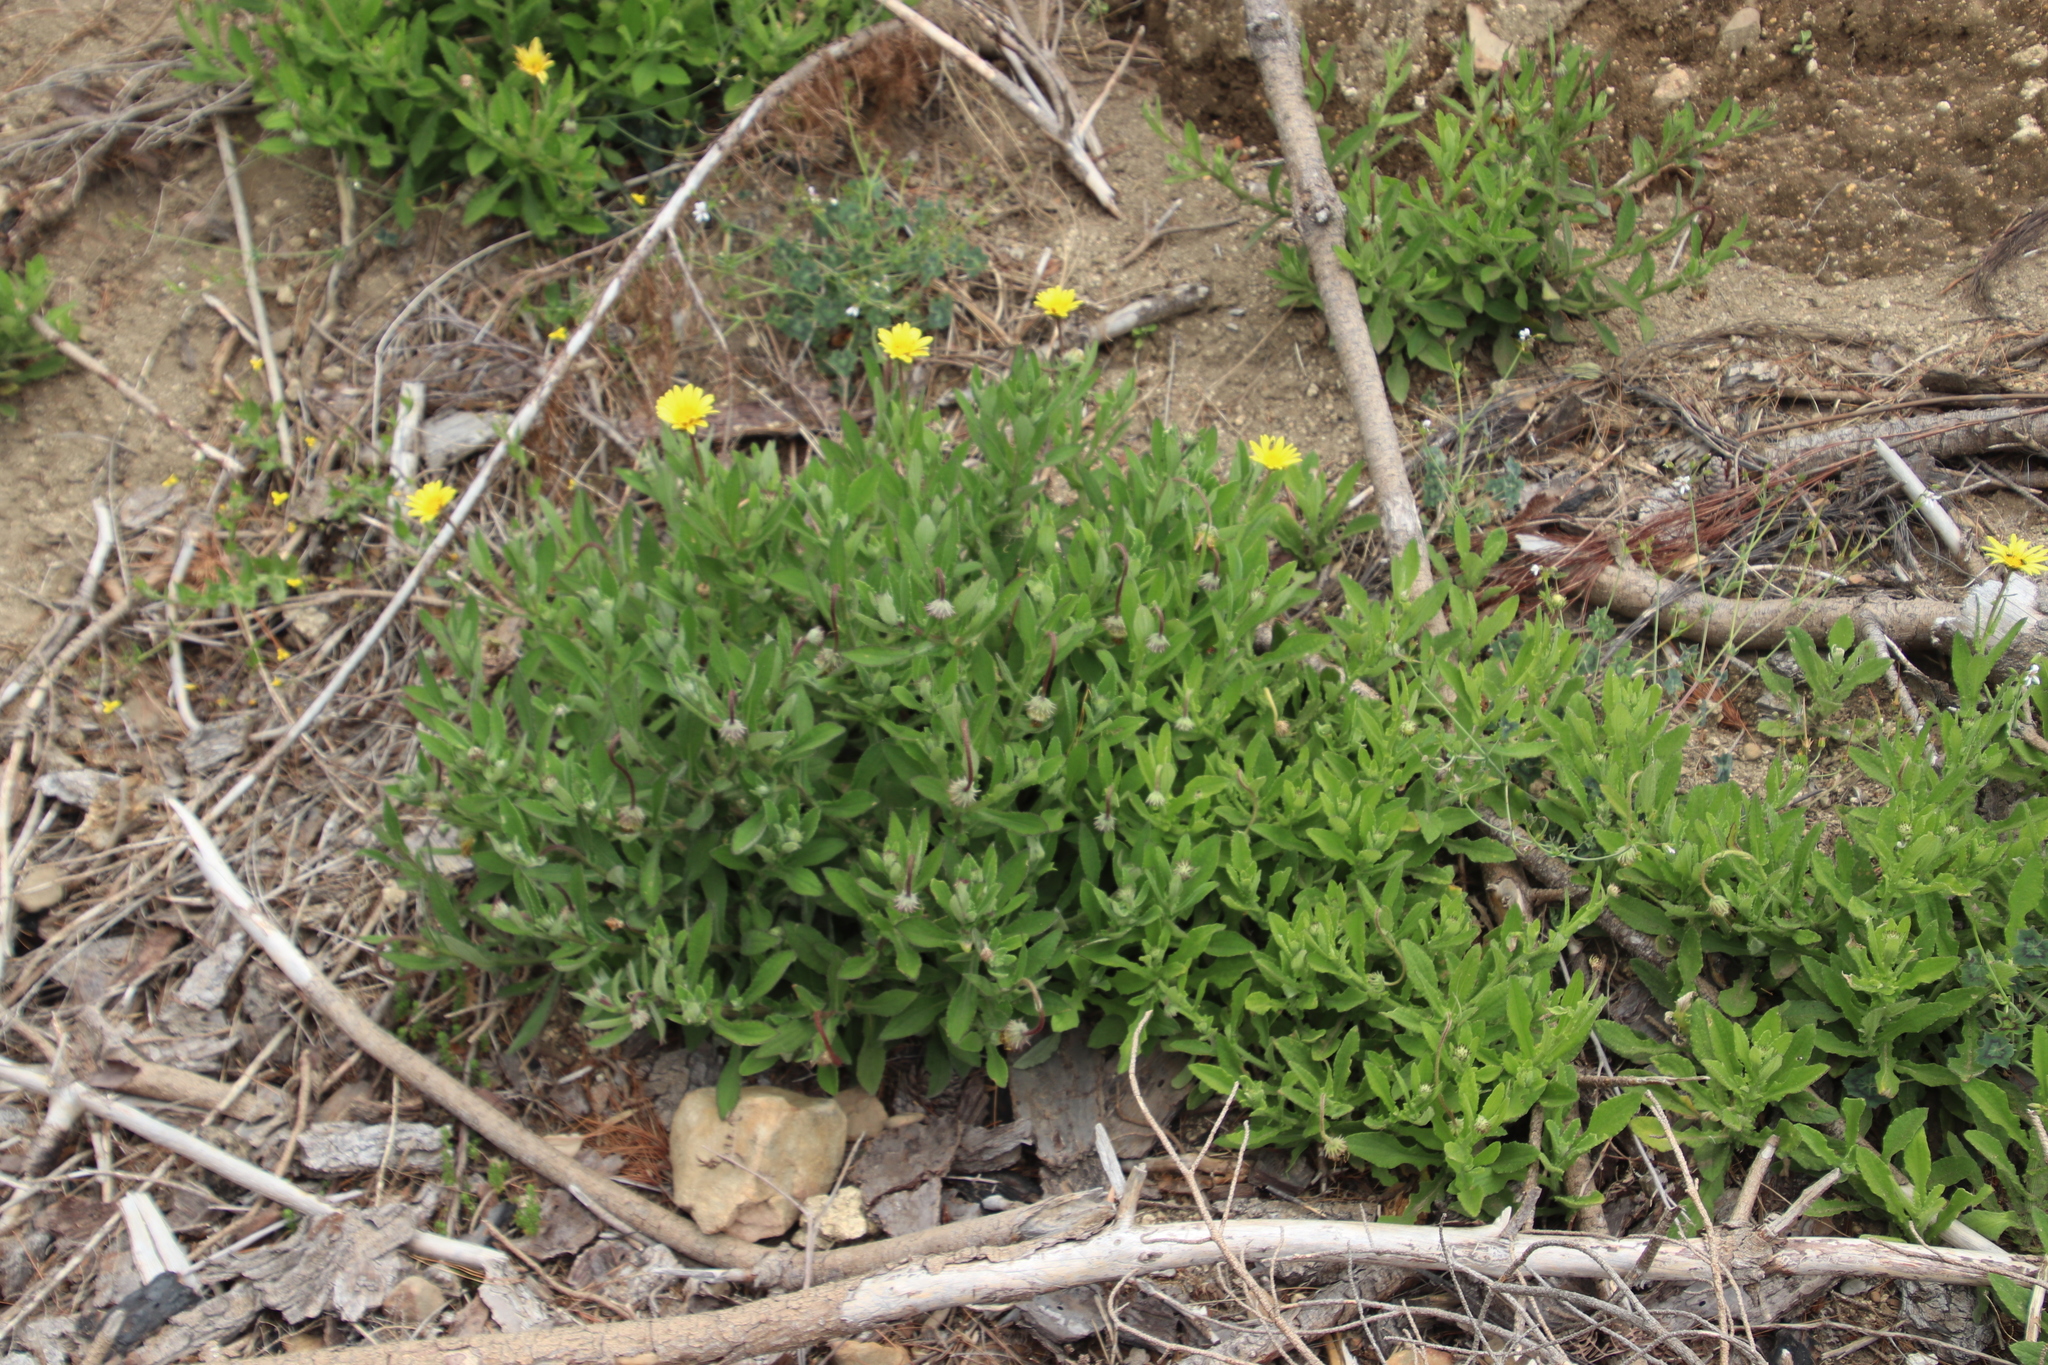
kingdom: Plantae
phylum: Tracheophyta
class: Magnoliopsida
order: Asterales
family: Asteraceae
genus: Arctotis
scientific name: Arctotis scabra
